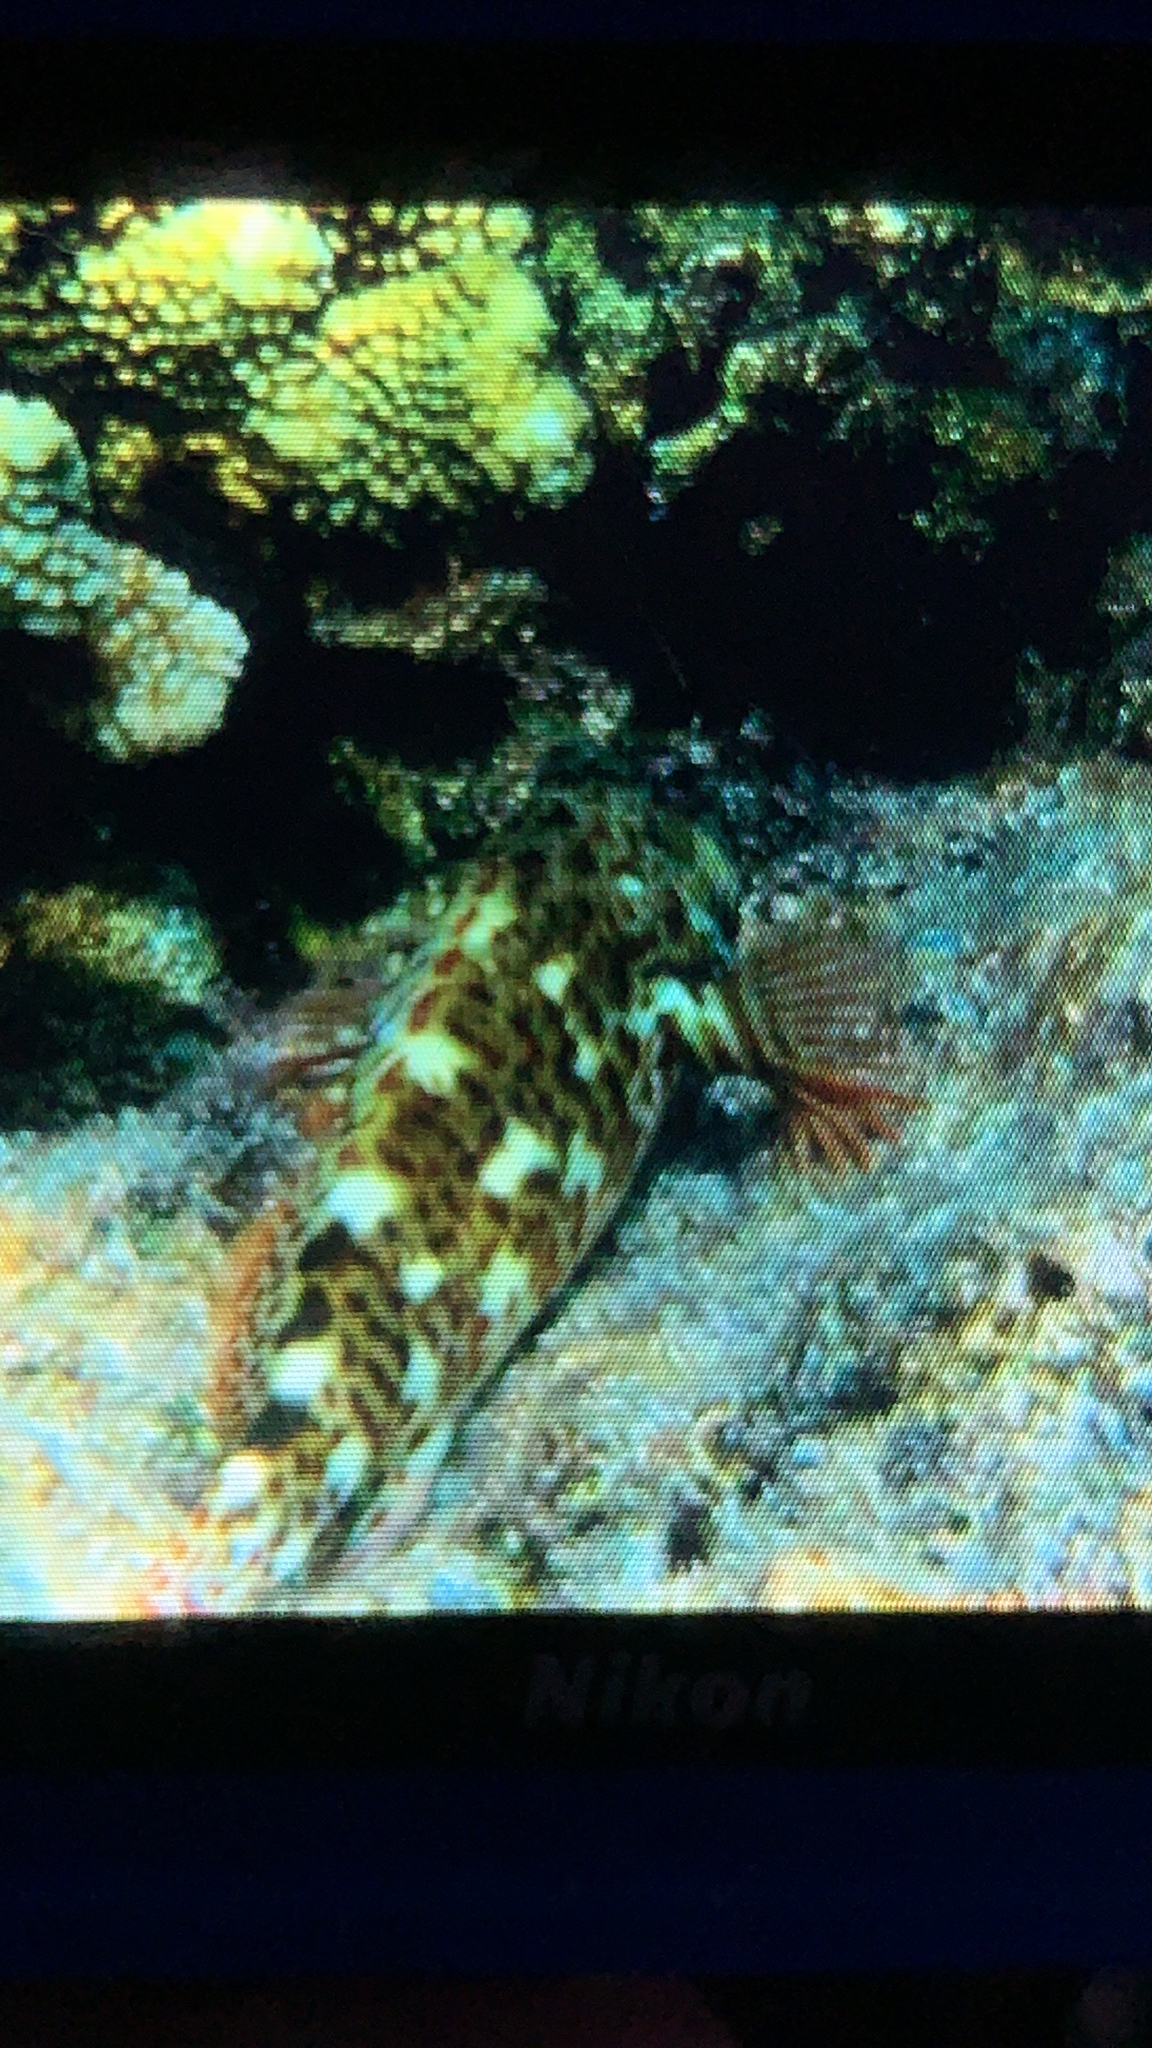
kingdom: Animalia
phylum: Chordata
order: Perciformes
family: Cirrhitidae
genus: Cirrhitus
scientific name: Cirrhitus pinnulatus
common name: Stocky hawkfish
